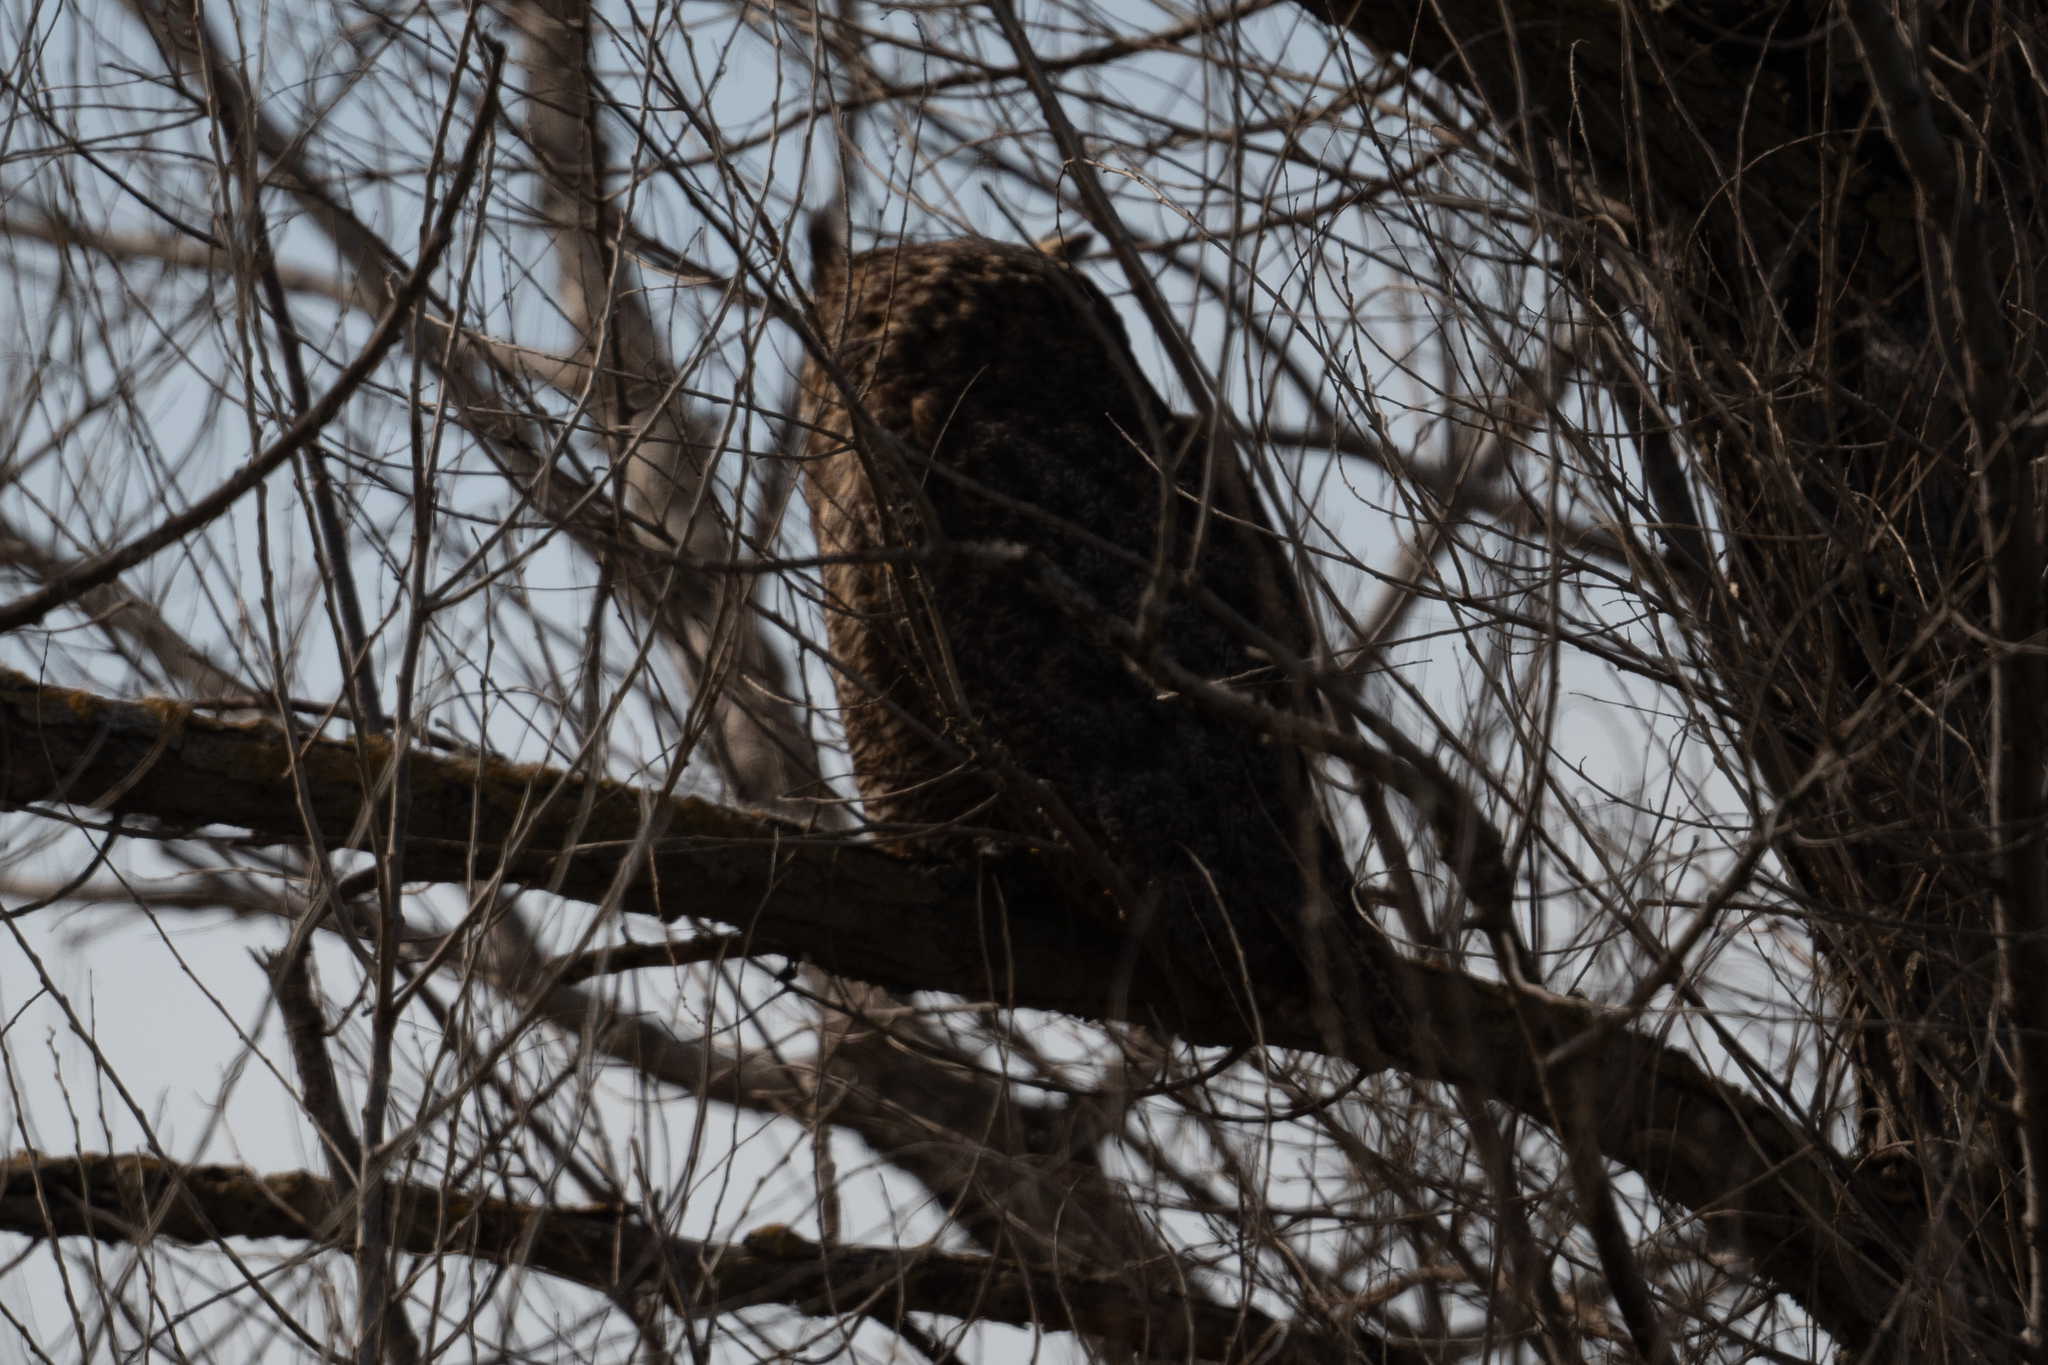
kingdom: Animalia
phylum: Chordata
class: Aves
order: Strigiformes
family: Strigidae
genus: Bubo
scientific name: Bubo virginianus
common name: Great horned owl
